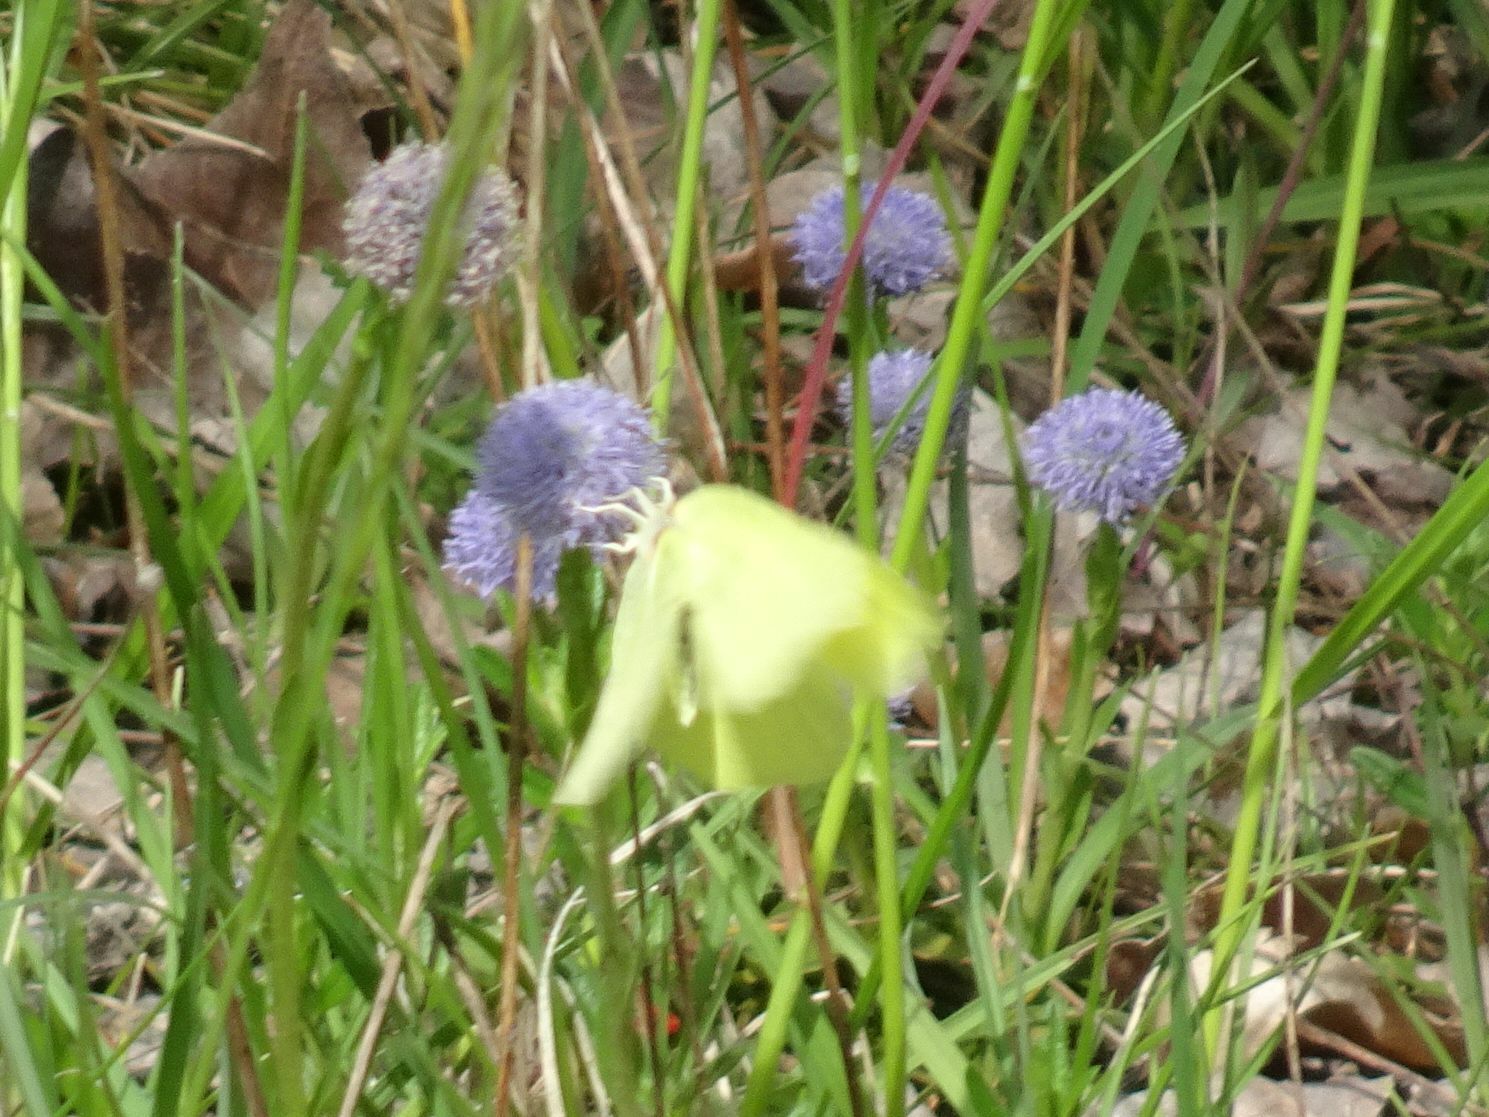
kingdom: Animalia
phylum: Arthropoda
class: Insecta
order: Lepidoptera
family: Pieridae
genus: Gonepteryx
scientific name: Gonepteryx rhamni
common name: Brimstone
